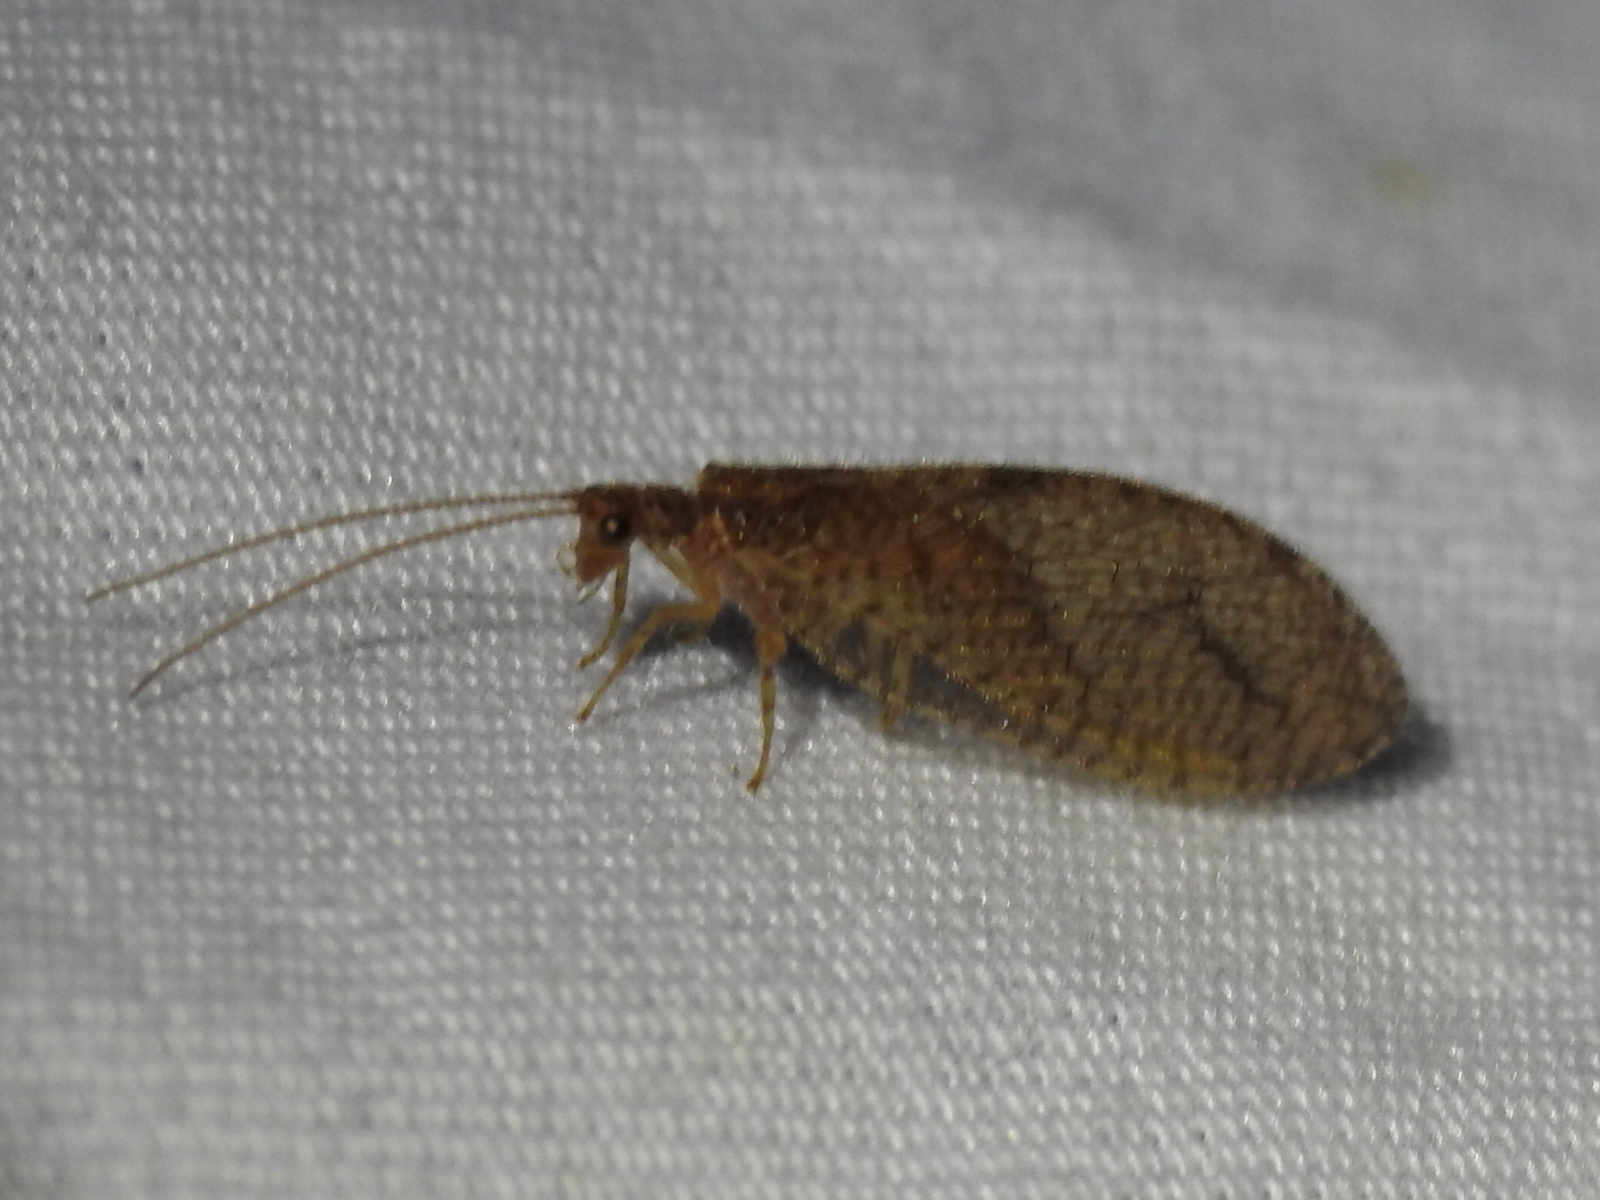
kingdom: Animalia
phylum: Arthropoda
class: Insecta
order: Neuroptera
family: Hemerobiidae
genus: Micromus
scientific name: Micromus posticus
